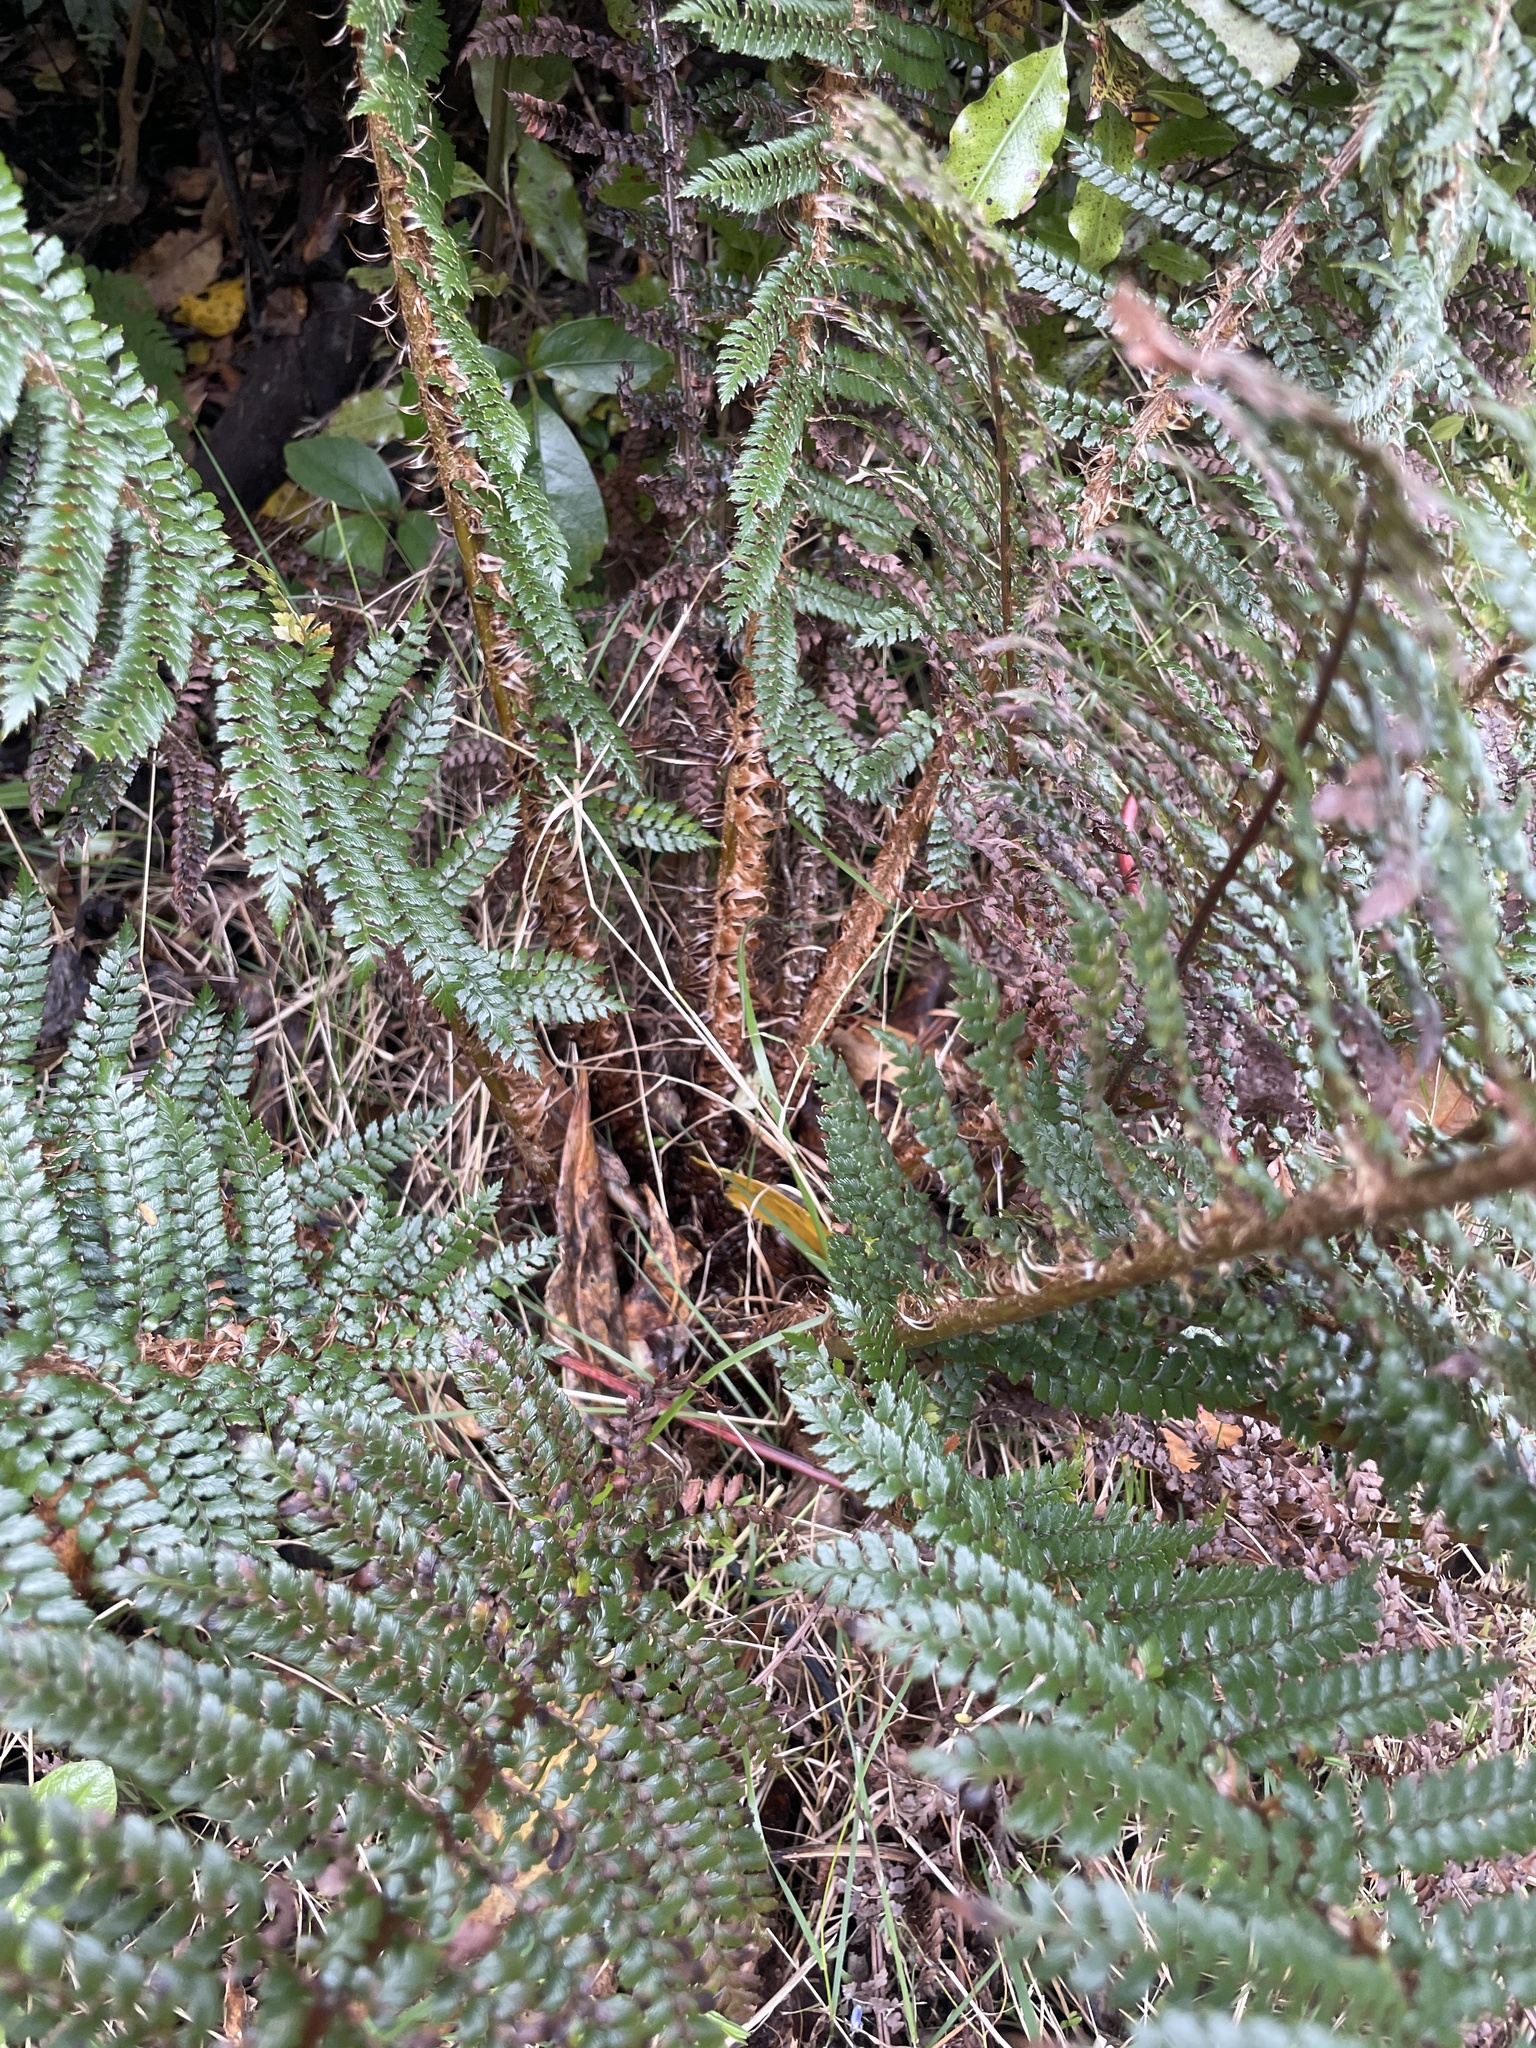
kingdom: Plantae
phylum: Tracheophyta
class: Polypodiopsida
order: Polypodiales
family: Dryopteridaceae
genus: Polystichum
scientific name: Polystichum vestitum
